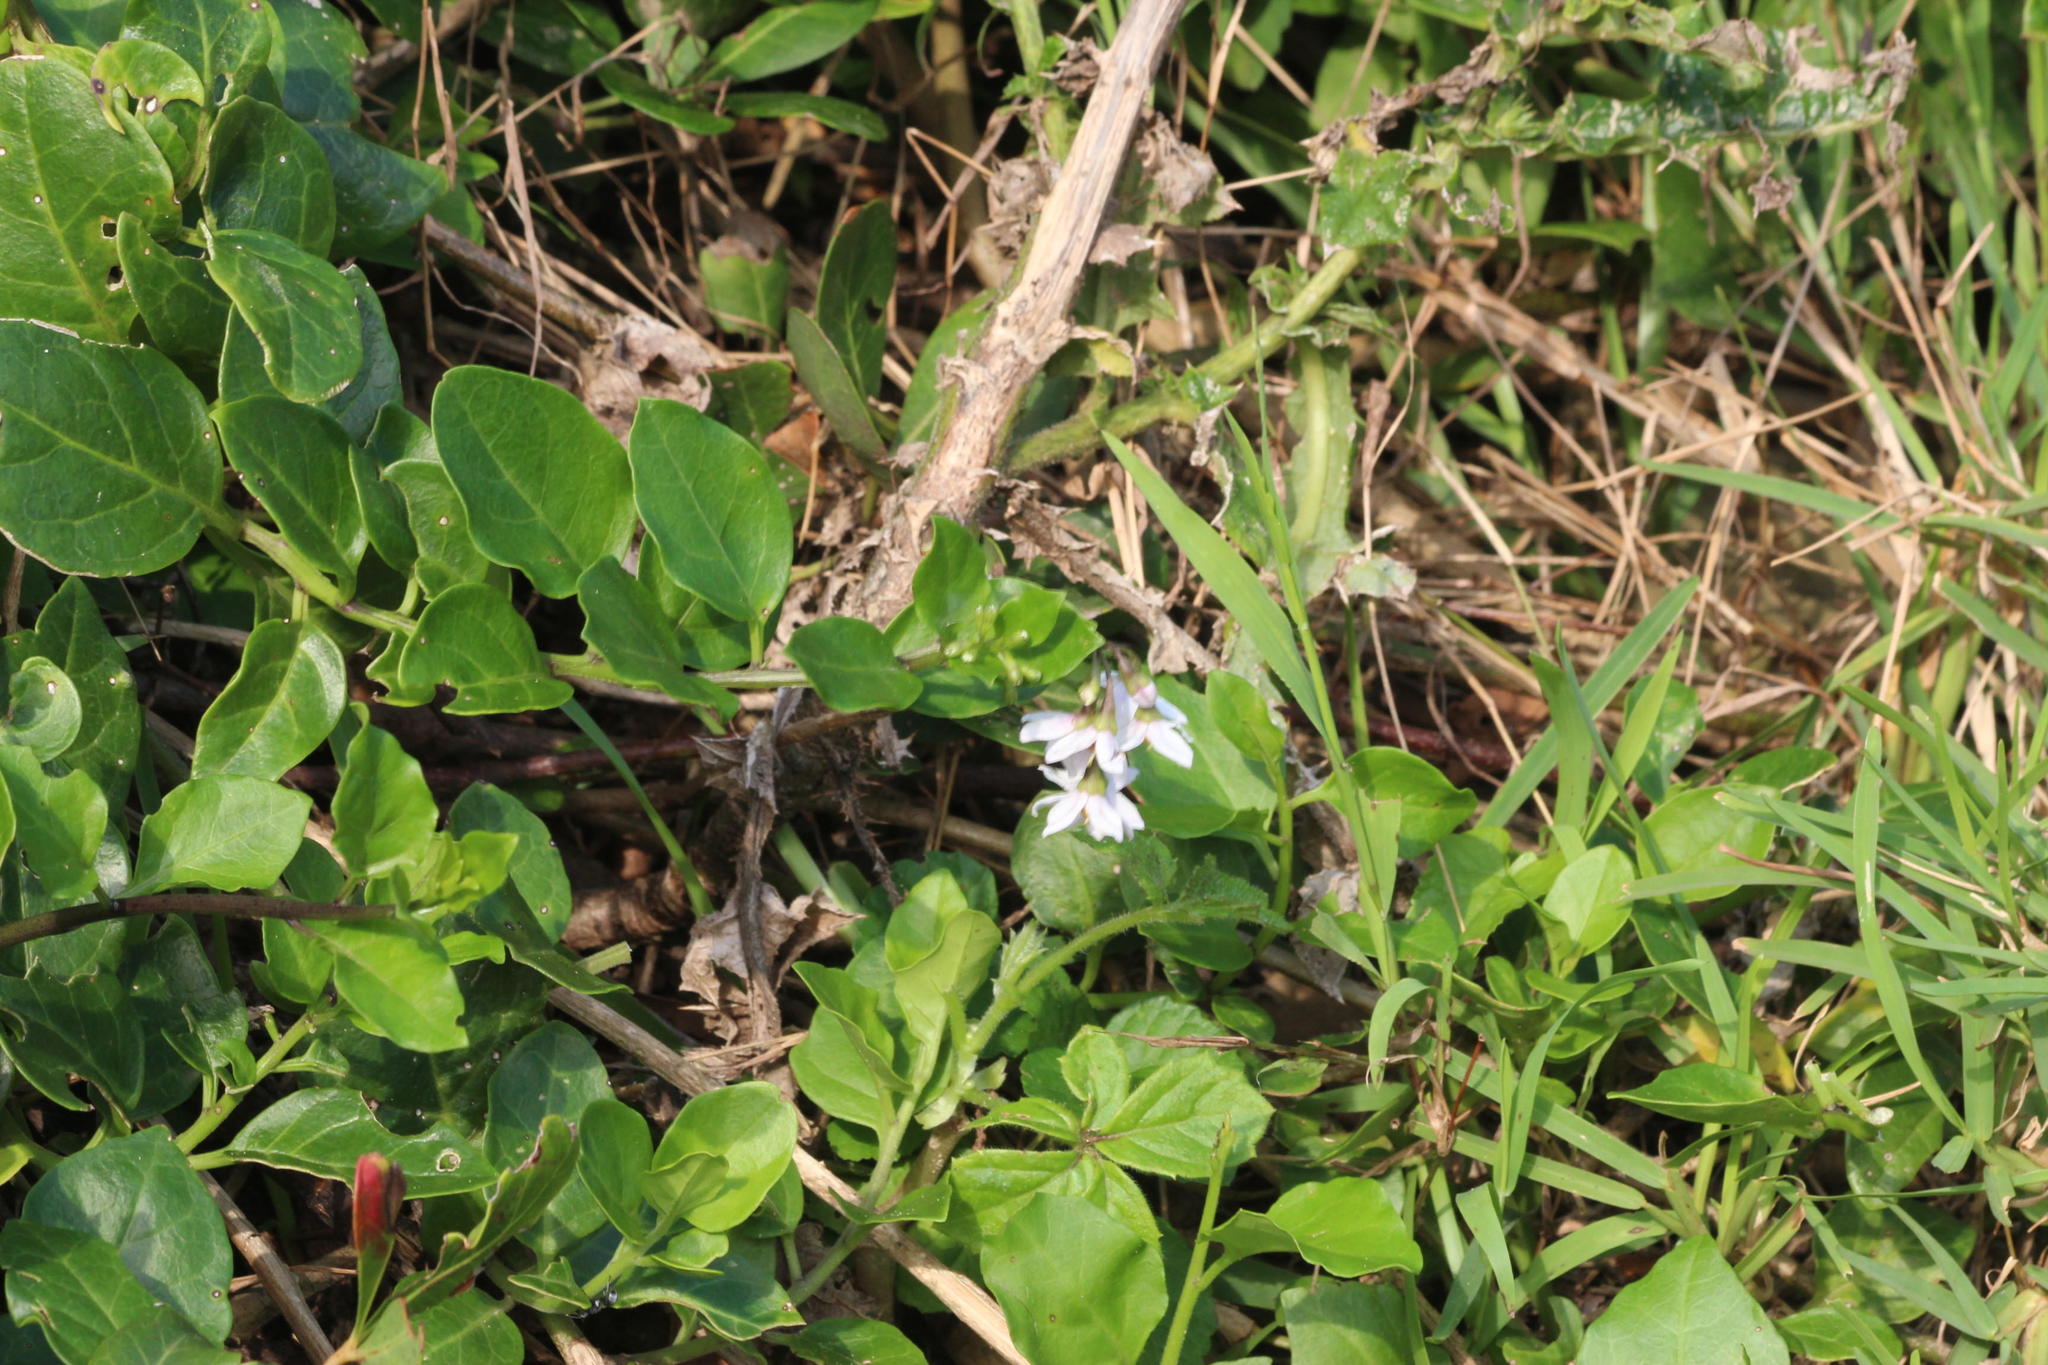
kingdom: Plantae
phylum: Tracheophyta
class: Magnoliopsida
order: Solanales
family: Solanaceae
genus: Solanum
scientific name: Solanum africanum
